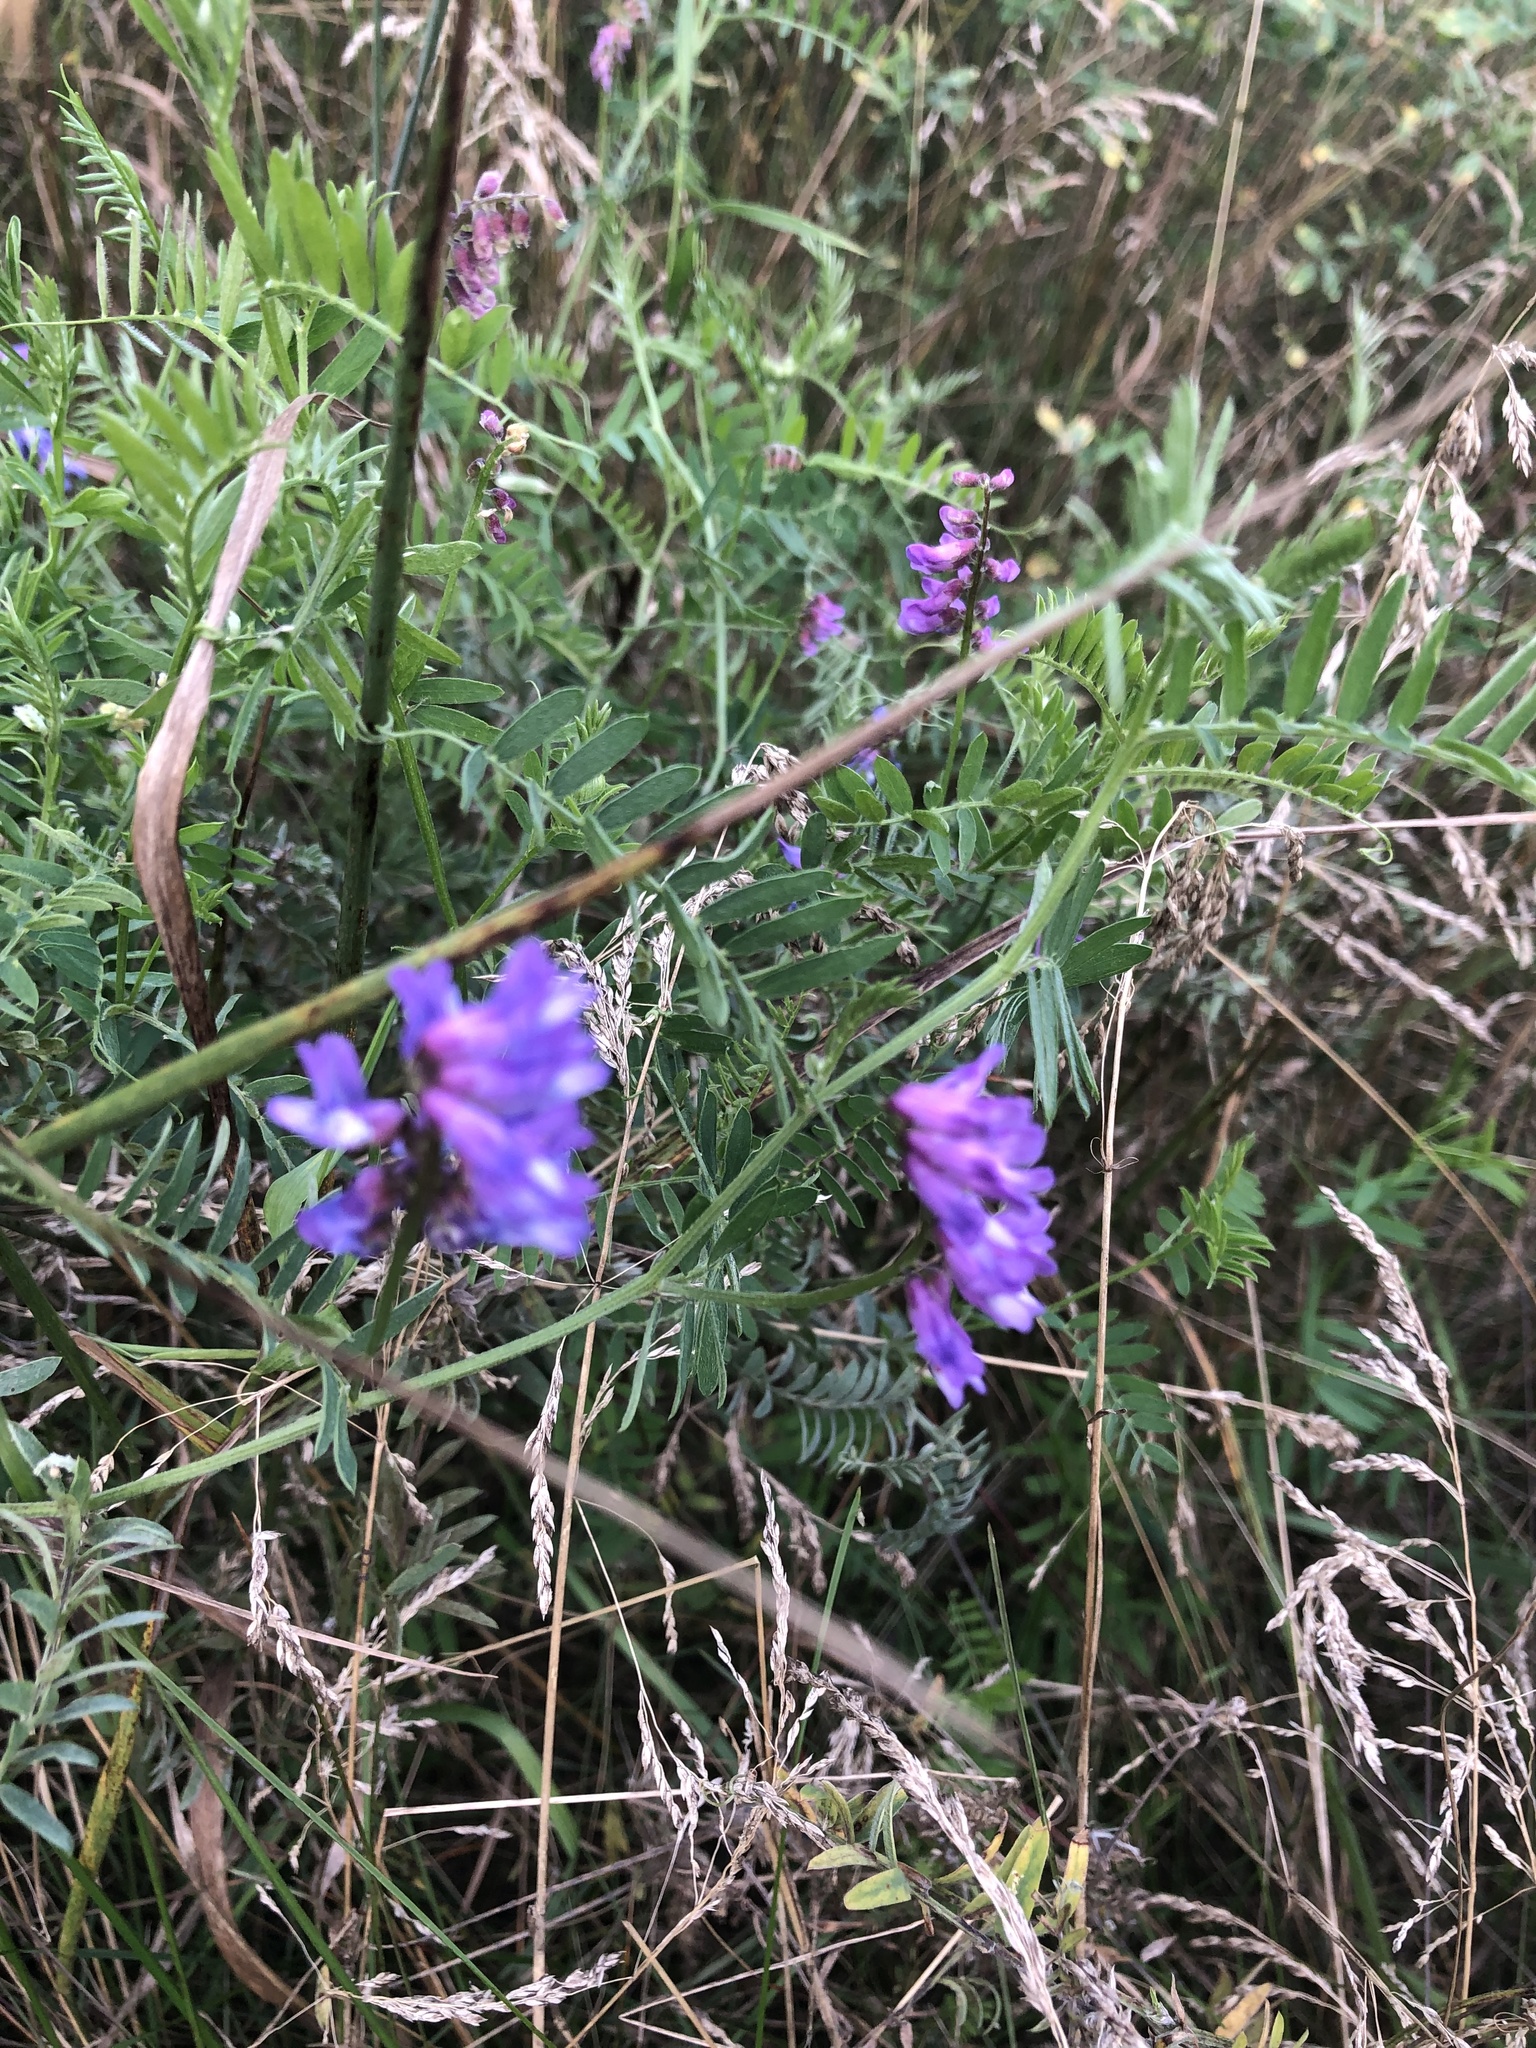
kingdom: Plantae
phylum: Tracheophyta
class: Magnoliopsida
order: Fabales
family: Fabaceae
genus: Vicia
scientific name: Vicia cracca
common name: Bird vetch
